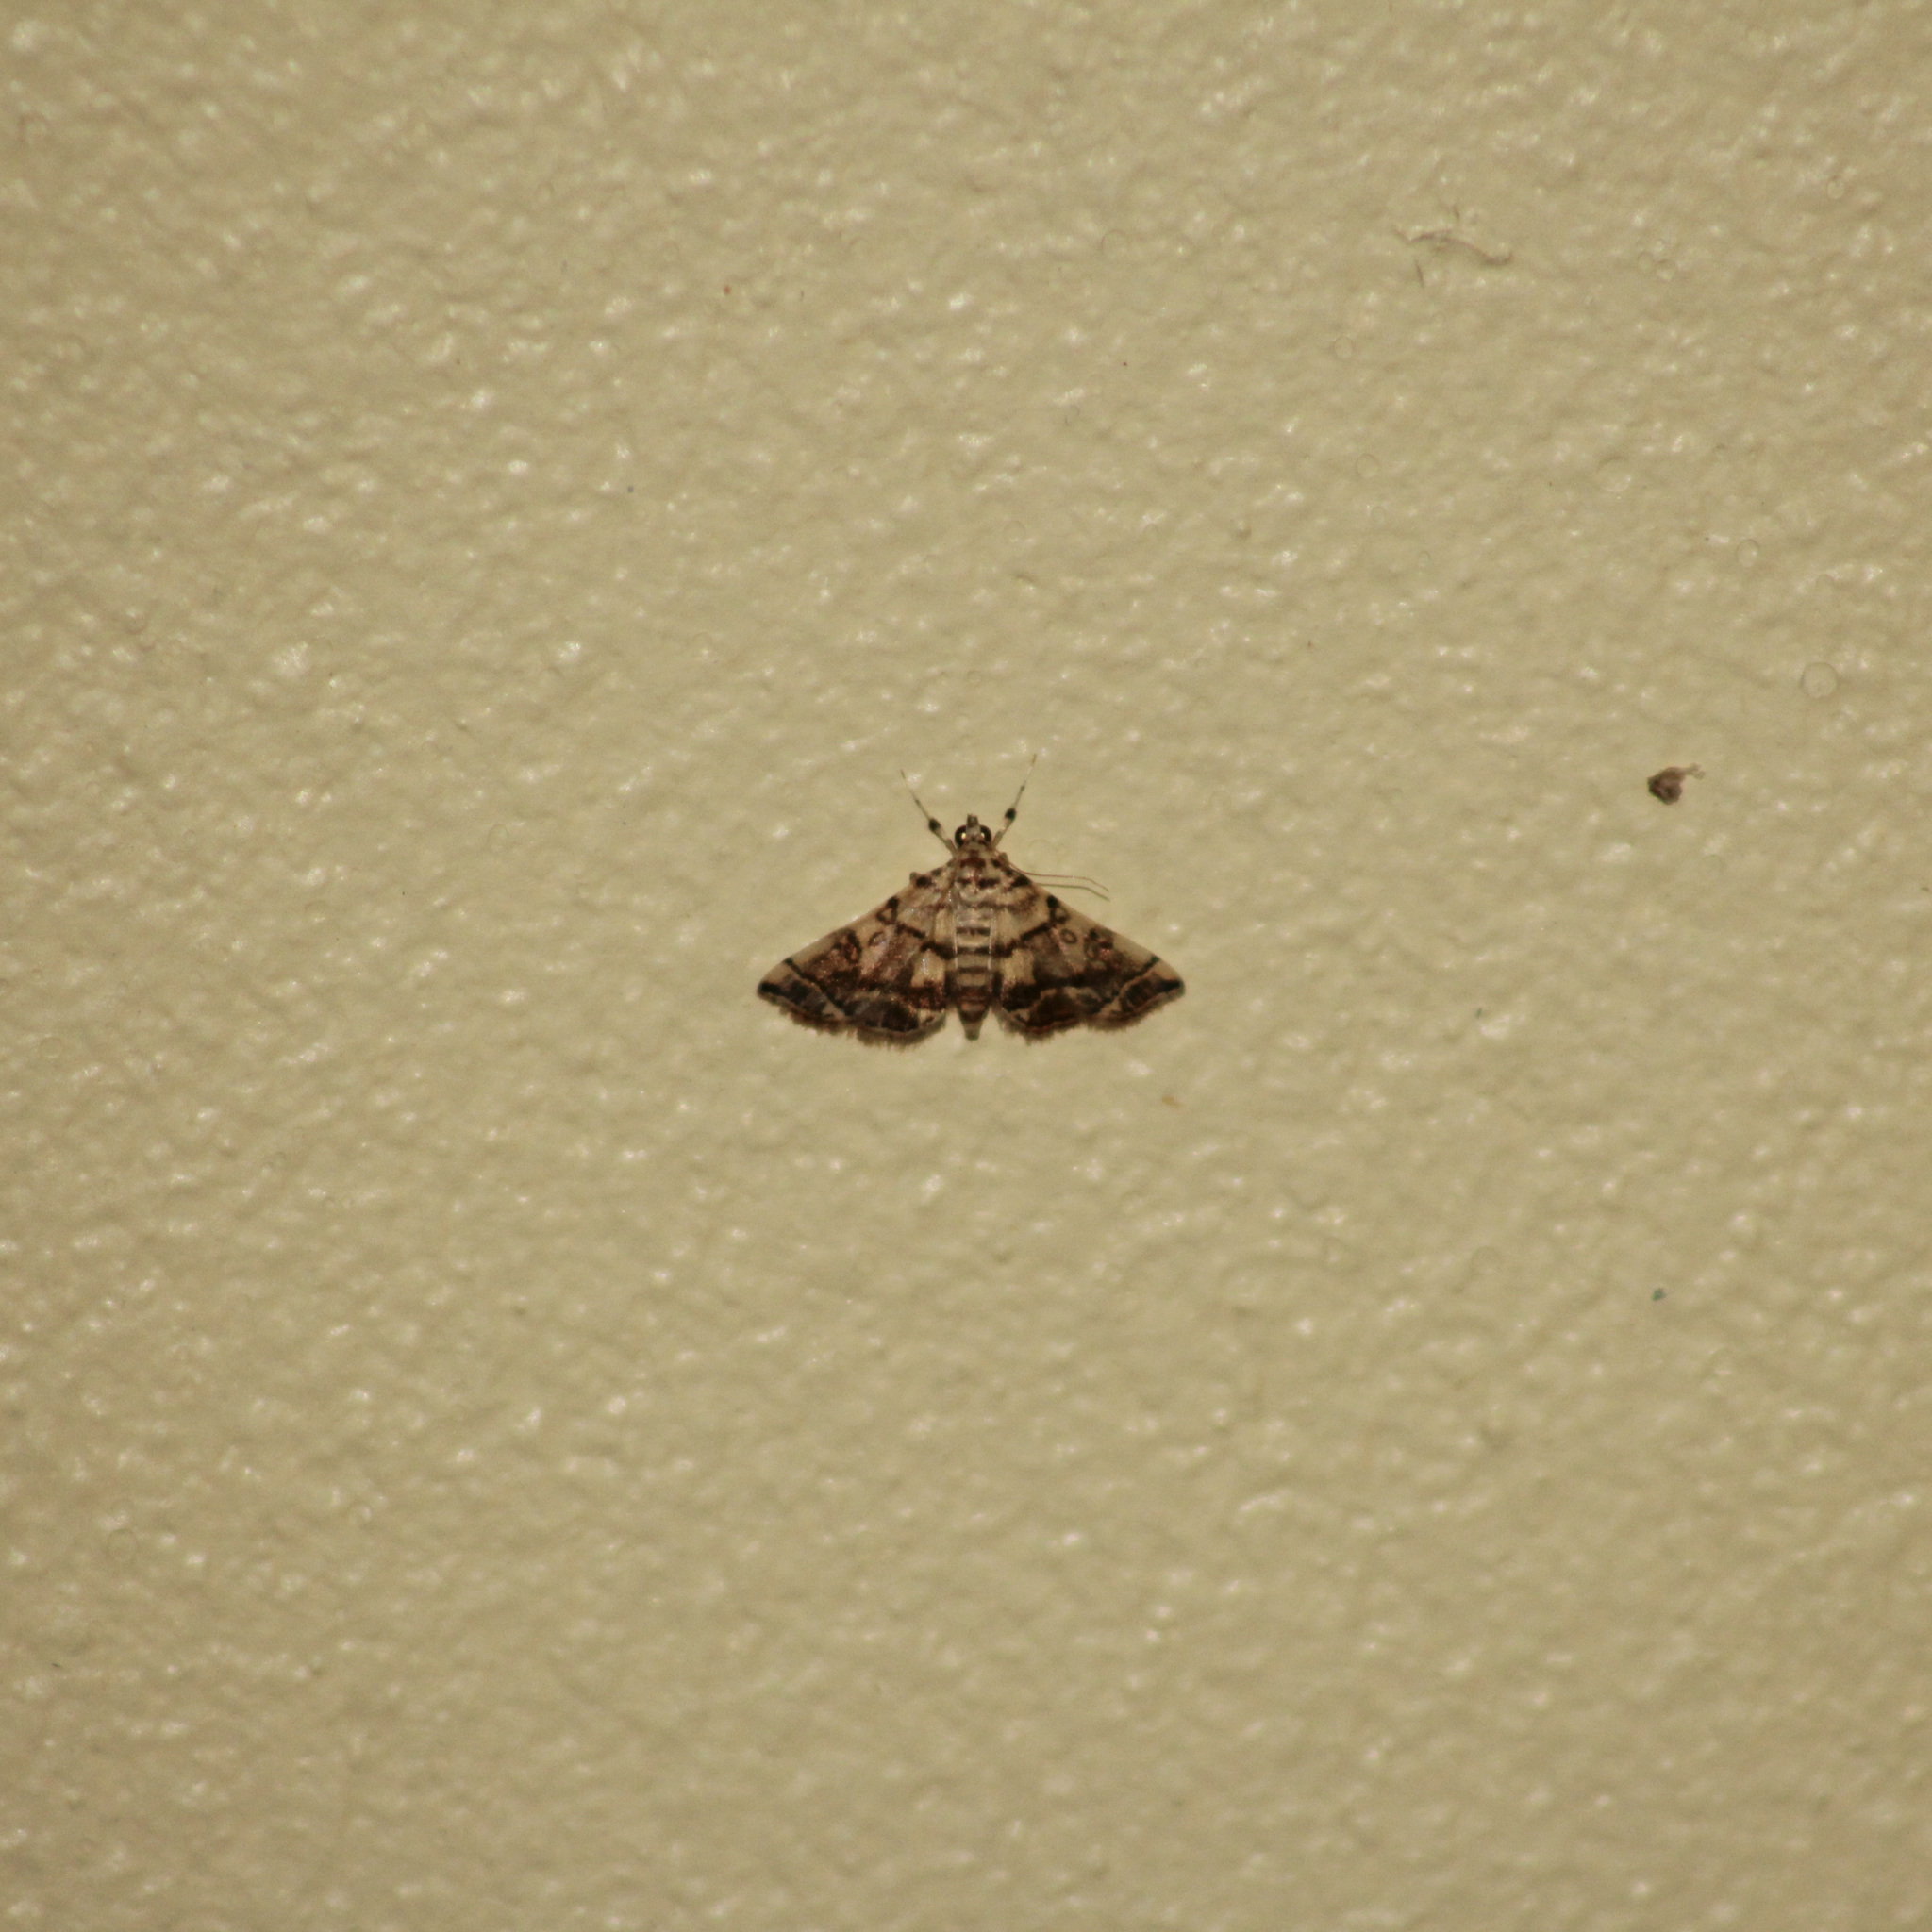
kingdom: Animalia
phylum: Arthropoda
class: Insecta
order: Lepidoptera
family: Crambidae
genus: Apogeshna
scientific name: Apogeshna stenialis
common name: Checkered apogeshna moth
